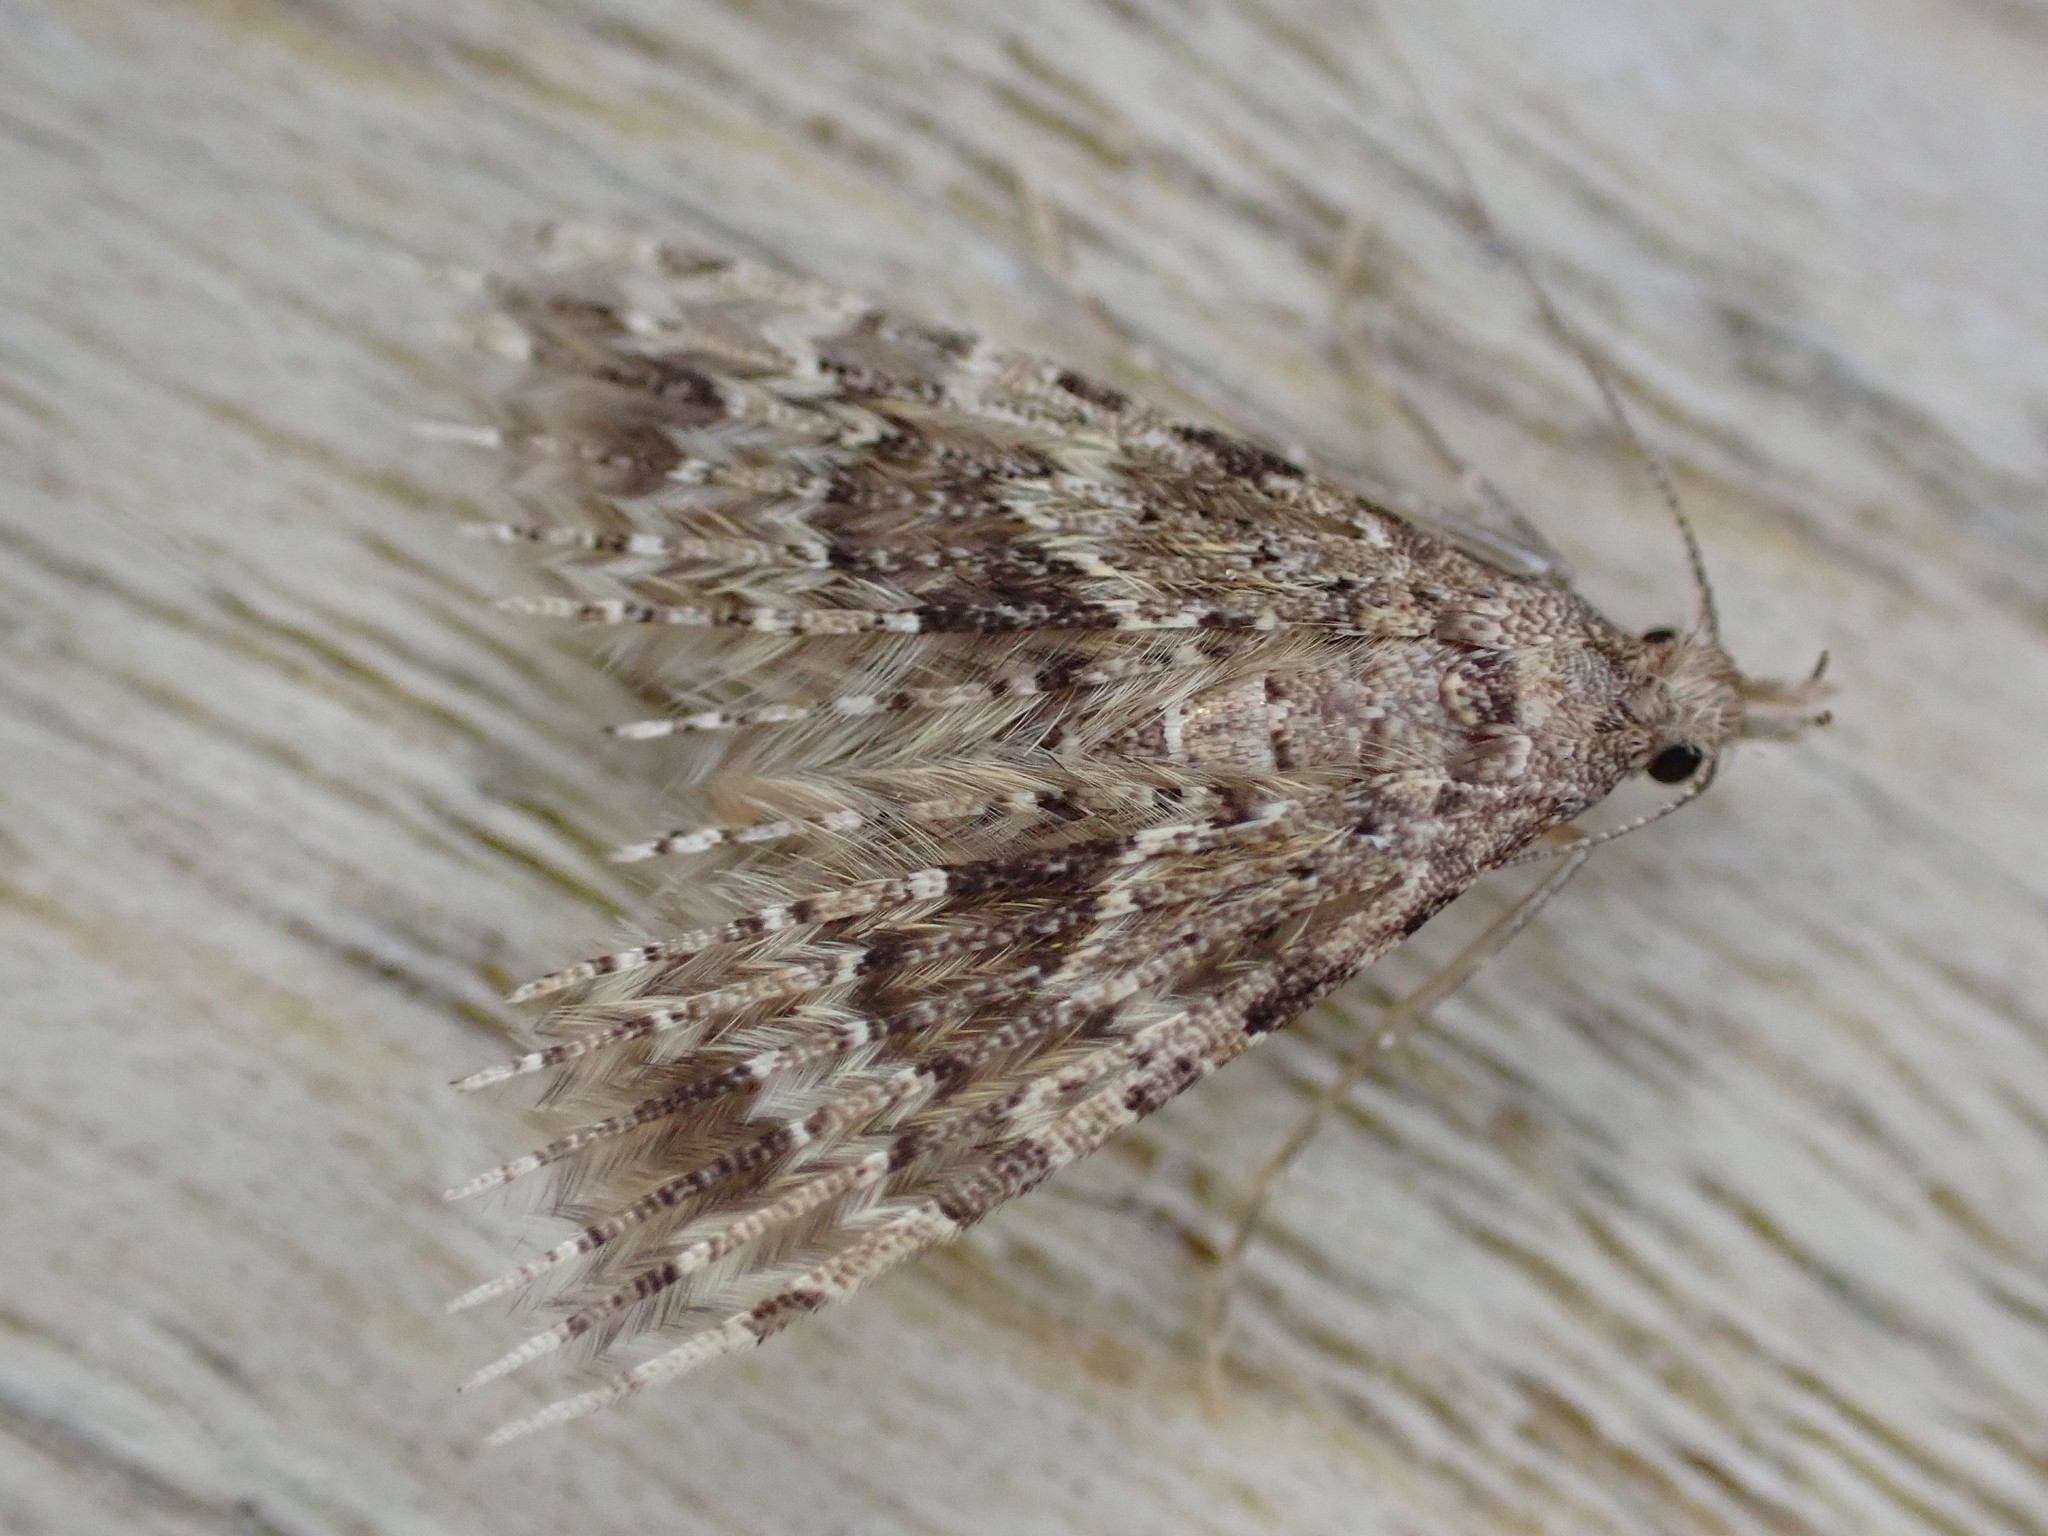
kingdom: Animalia
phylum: Arthropoda
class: Insecta
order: Lepidoptera
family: Alucitidae
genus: Alucita
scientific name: Alucita hexadactyla
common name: Twenty-plume moth
